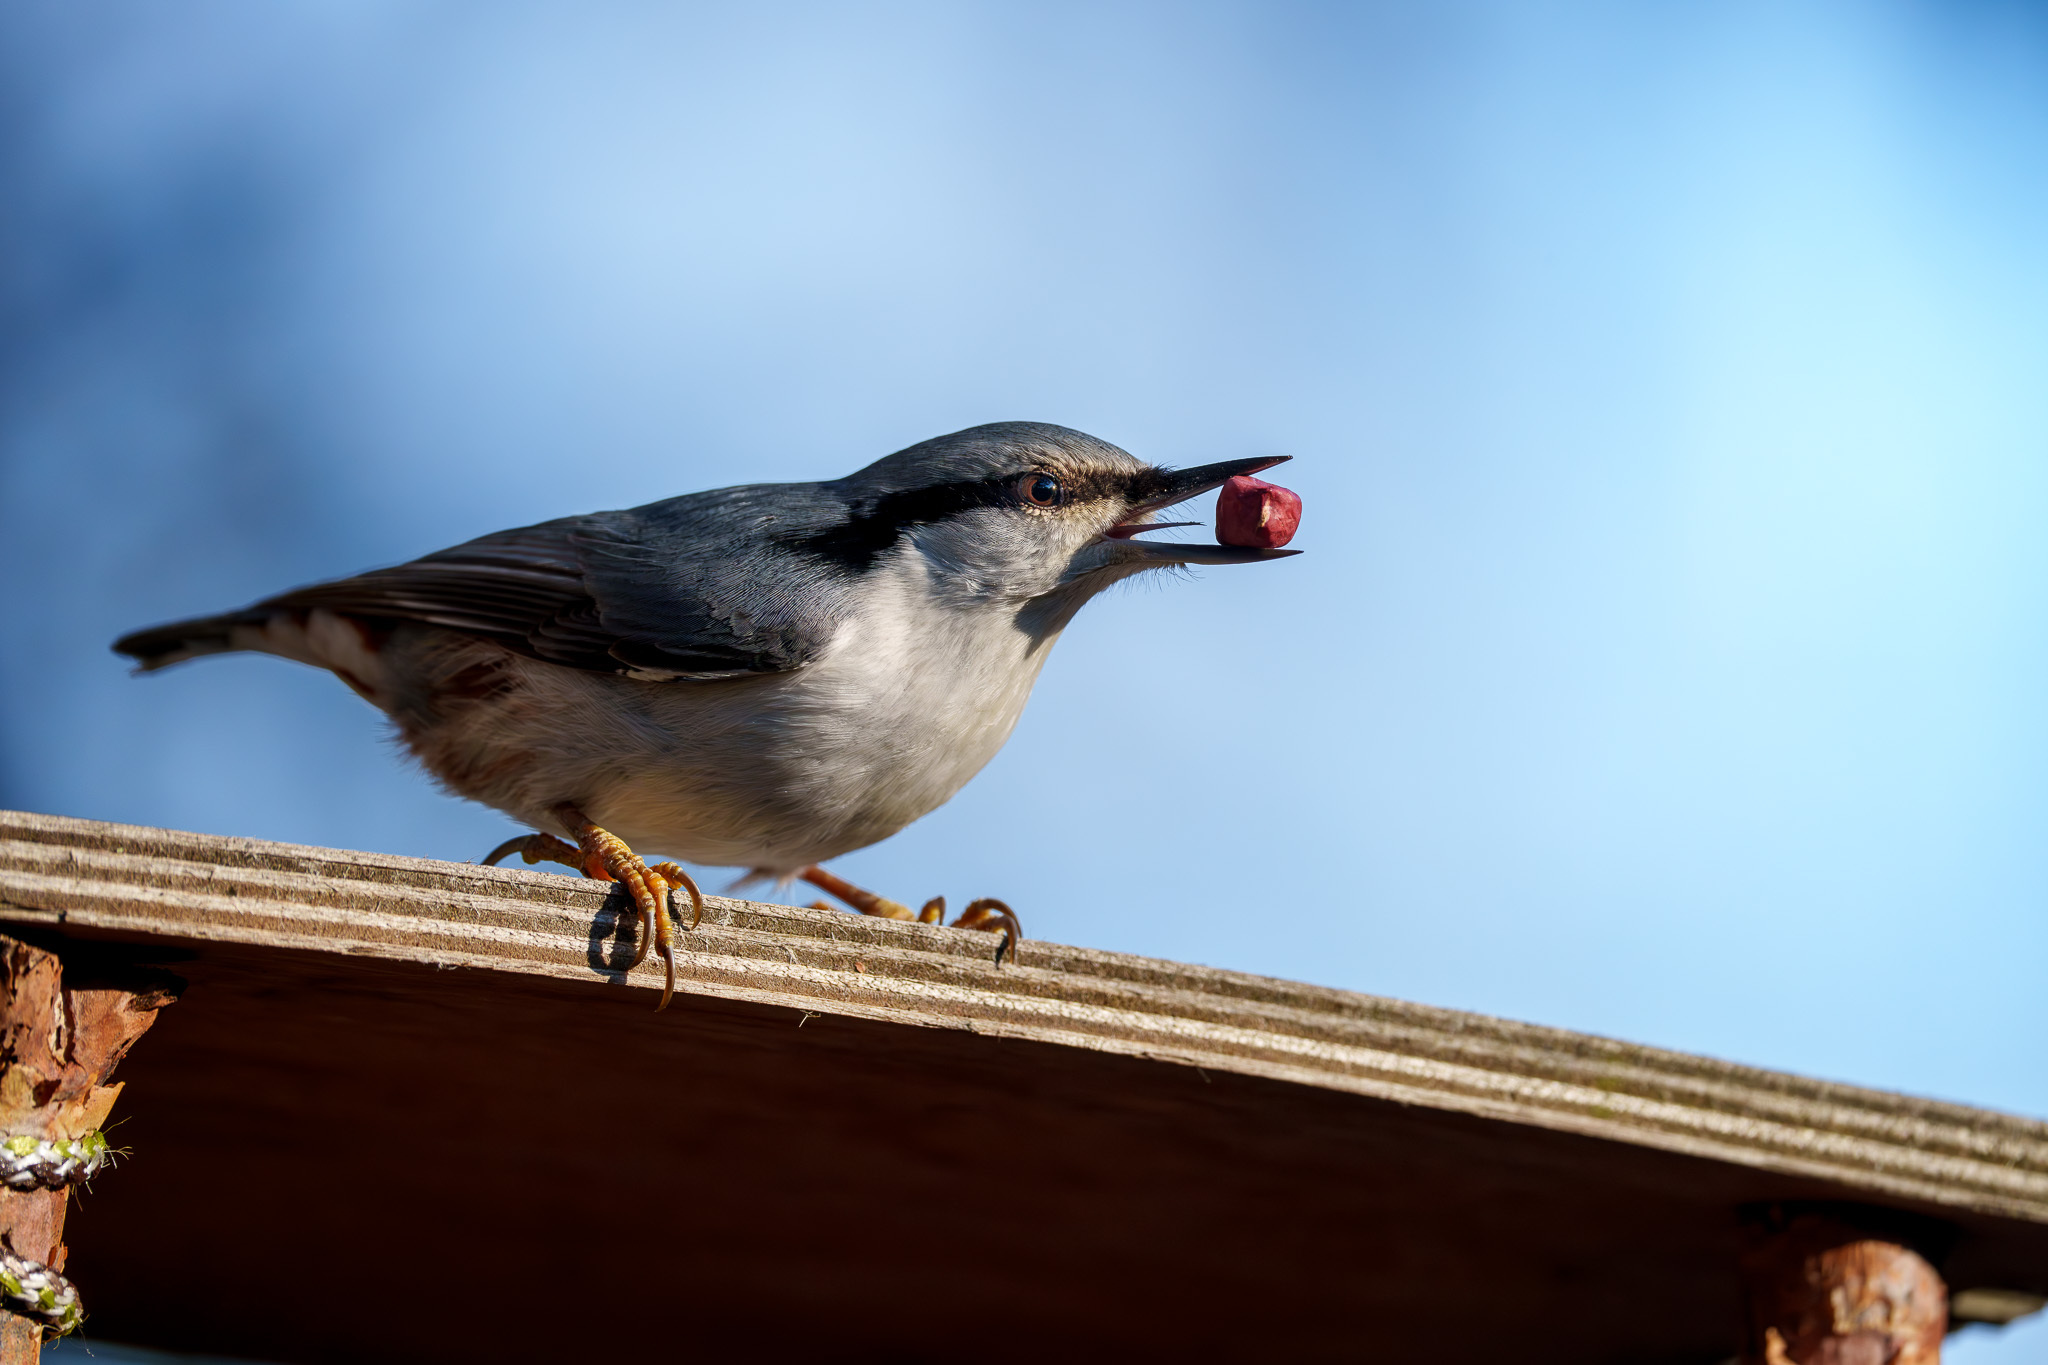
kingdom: Animalia
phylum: Chordata
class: Aves
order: Passeriformes
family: Sittidae
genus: Sitta
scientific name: Sitta europaea
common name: Eurasian nuthatch
